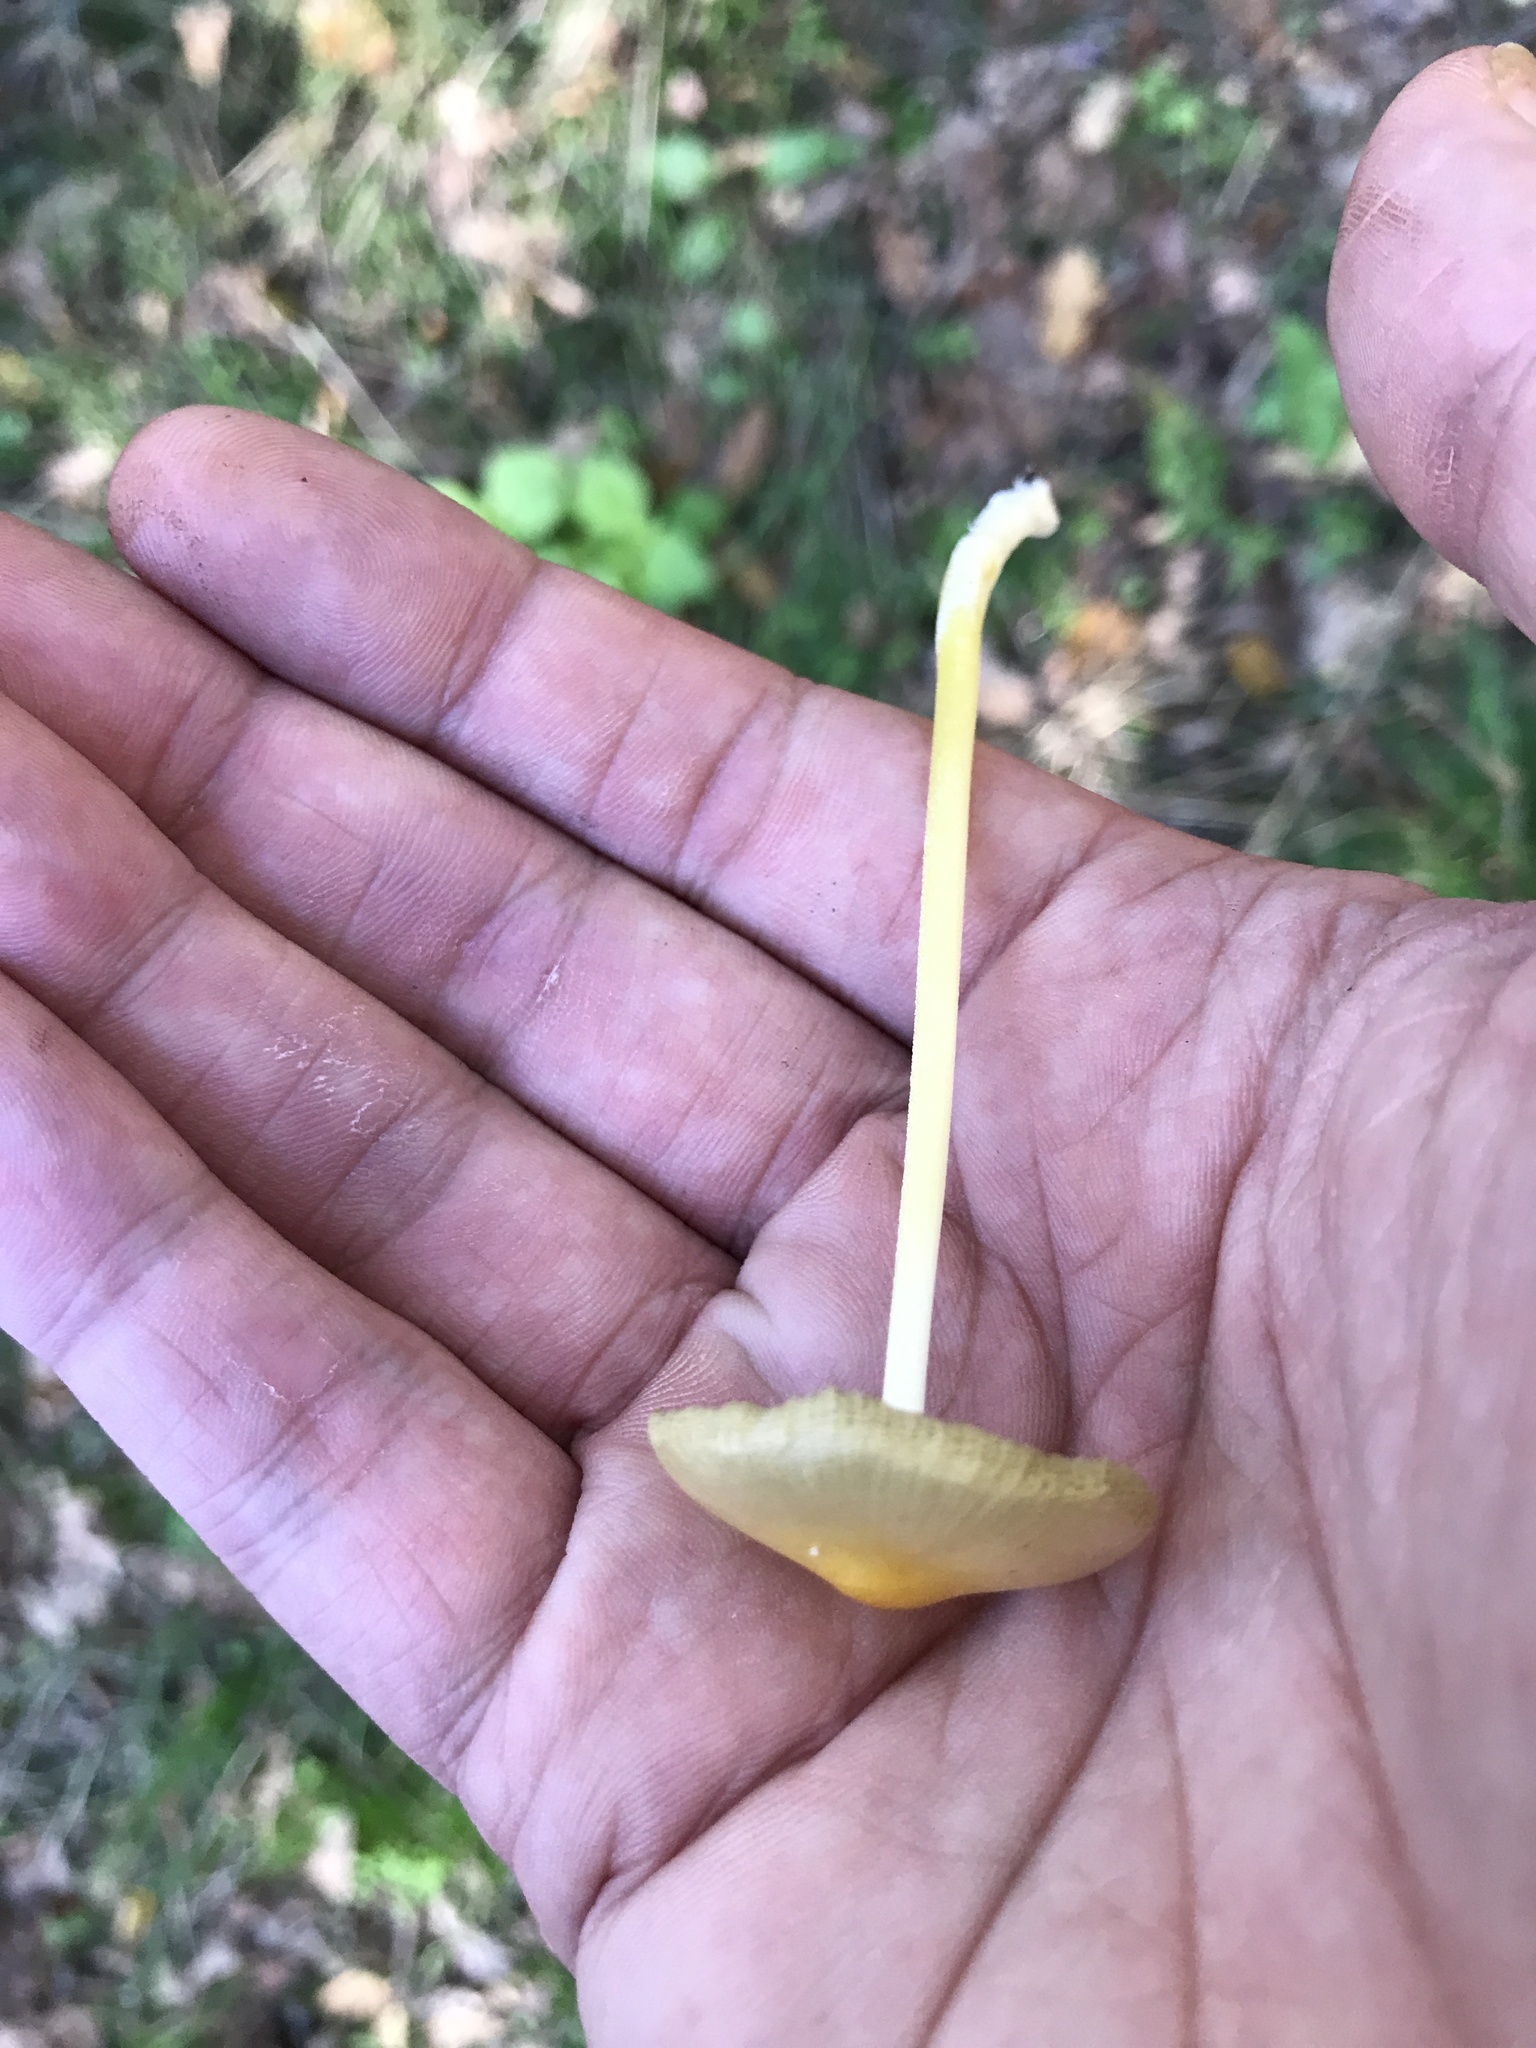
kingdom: Fungi
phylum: Basidiomycota
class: Agaricomycetes
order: Agaricales
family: Bolbitiaceae
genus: Bolbitius
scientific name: Bolbitius titubans
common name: Yellow fieldcap
